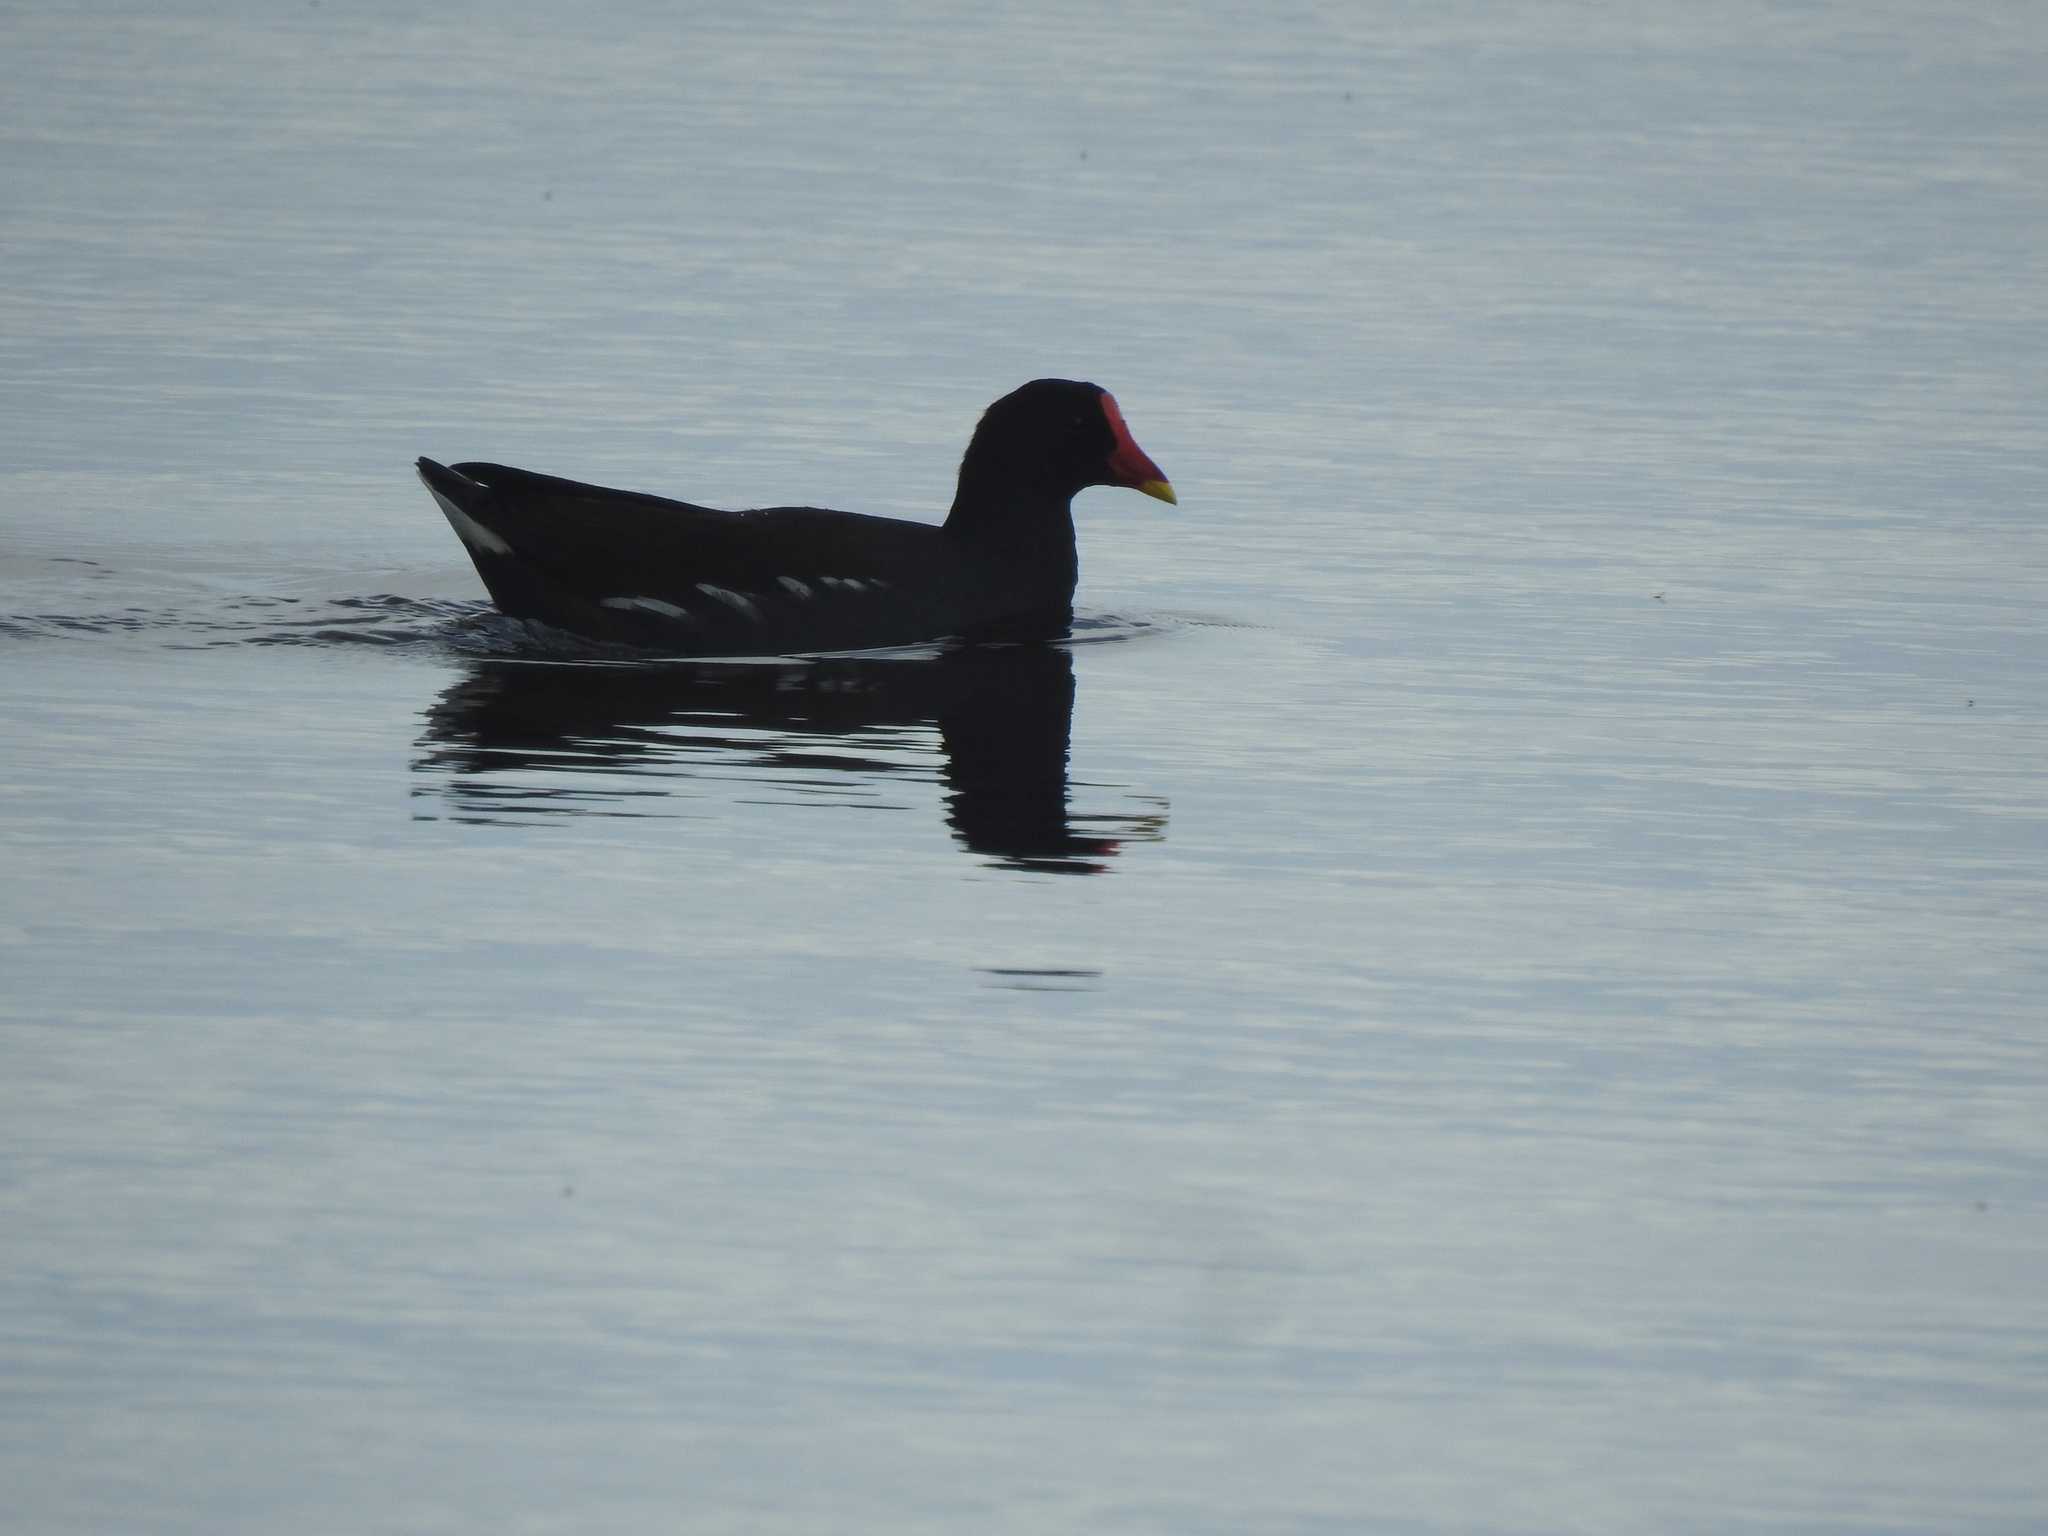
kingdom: Animalia
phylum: Chordata
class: Aves
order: Gruiformes
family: Rallidae
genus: Gallinula
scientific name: Gallinula chloropus
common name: Common moorhen
